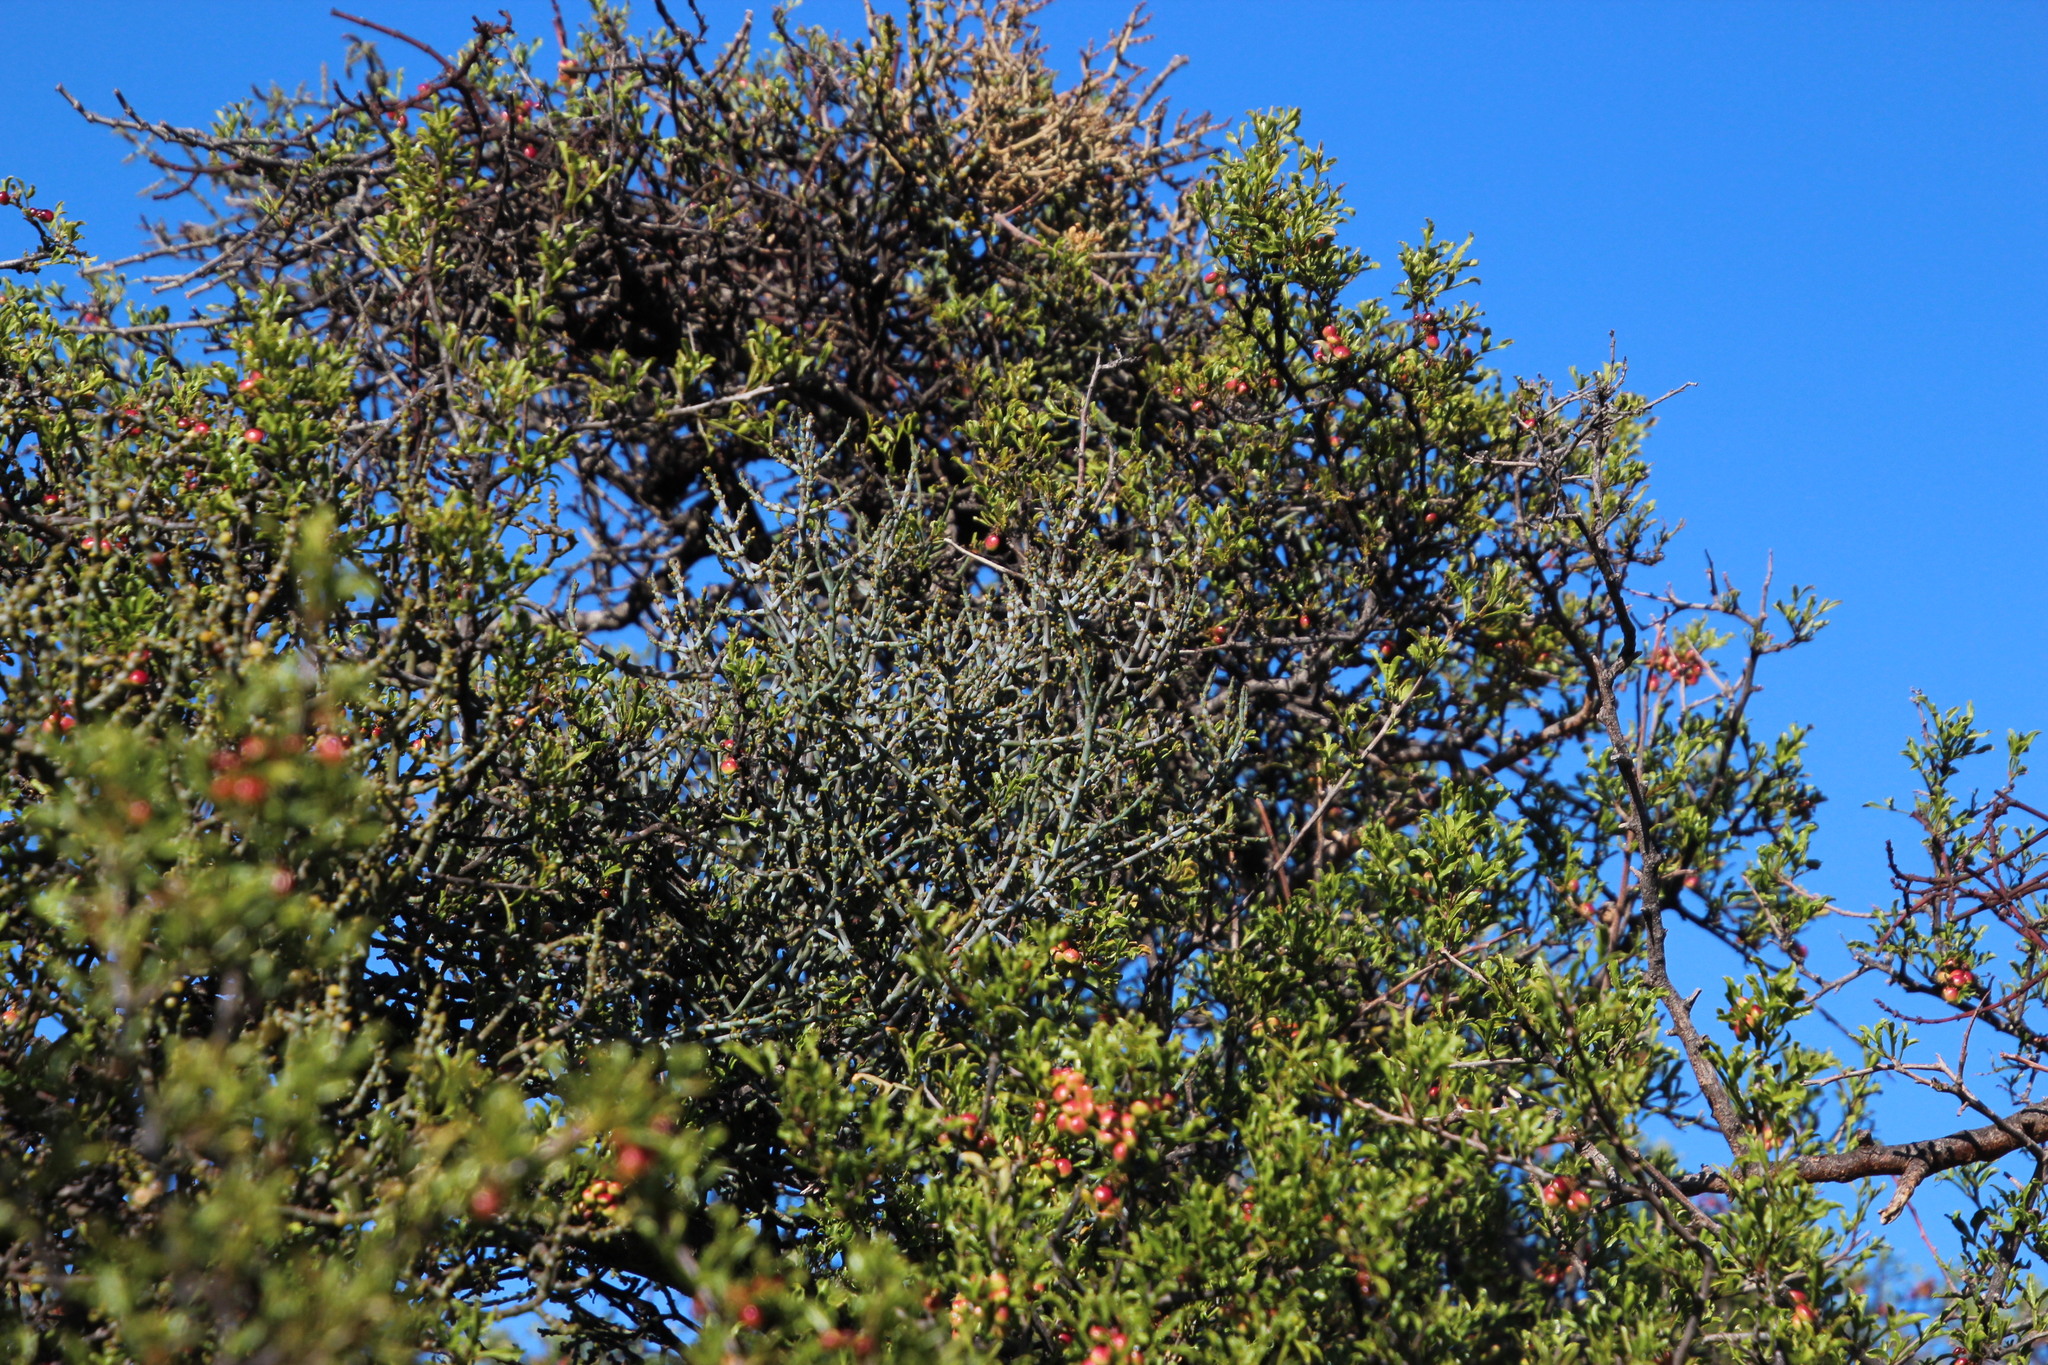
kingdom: Plantae
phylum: Tracheophyta
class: Magnoliopsida
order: Sapindales
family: Anacardiaceae
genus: Searsia
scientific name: Searsia undulata
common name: Namaqua kunibush
